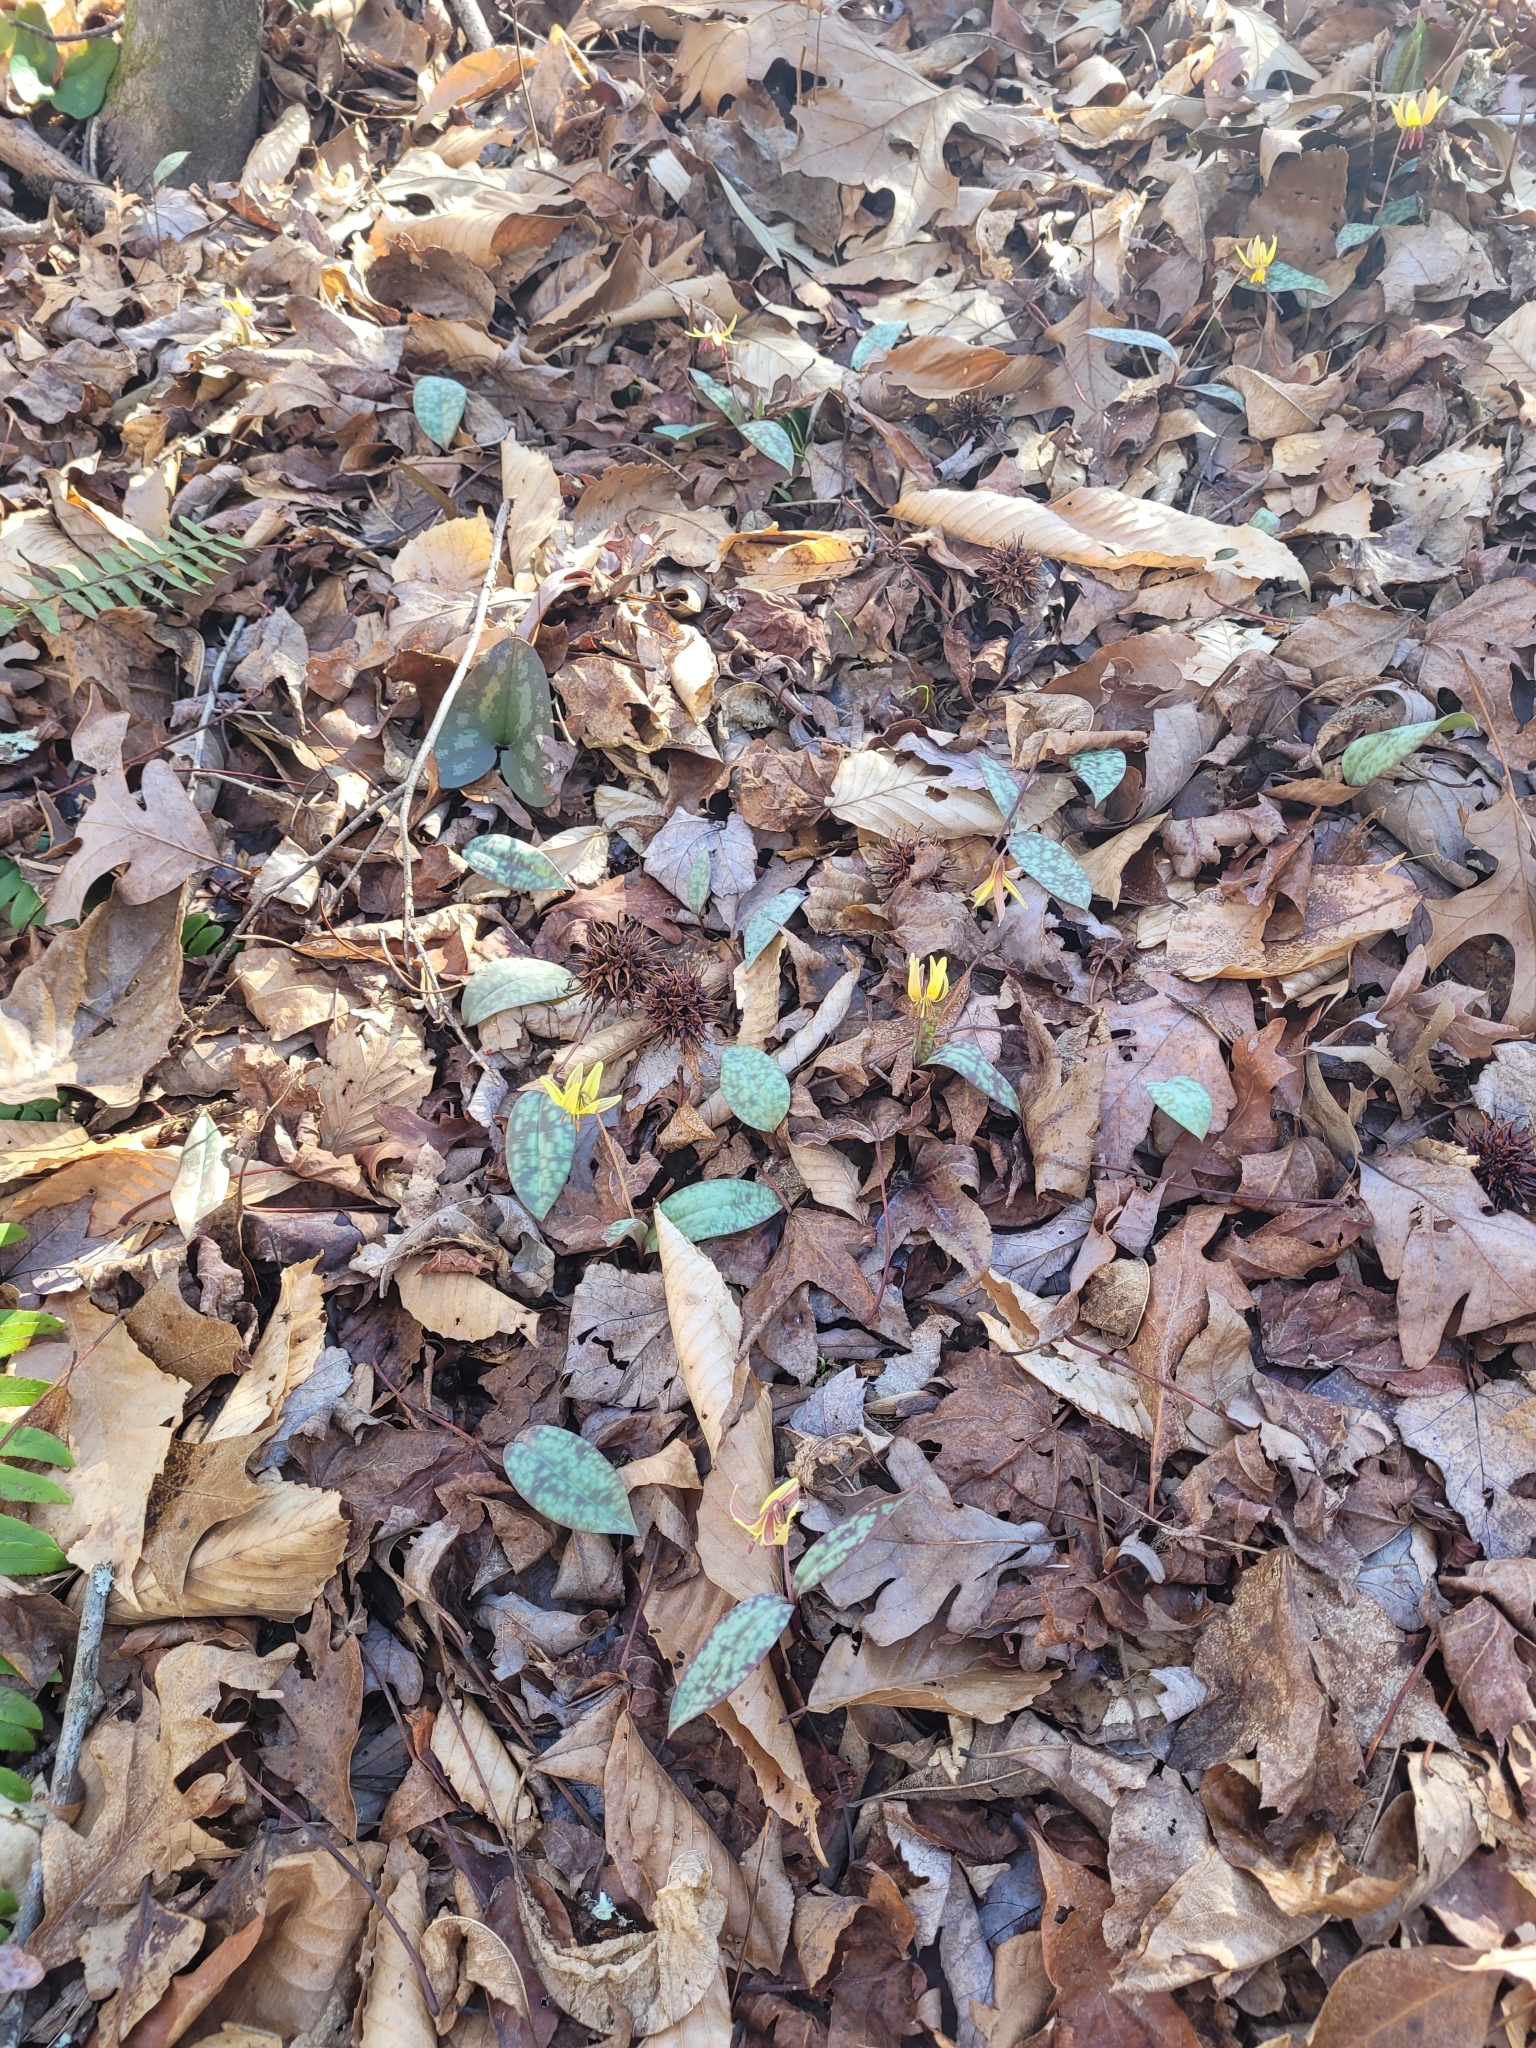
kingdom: Plantae
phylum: Tracheophyta
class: Liliopsida
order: Liliales
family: Liliaceae
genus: Erythronium
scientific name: Erythronium umbilicatum
